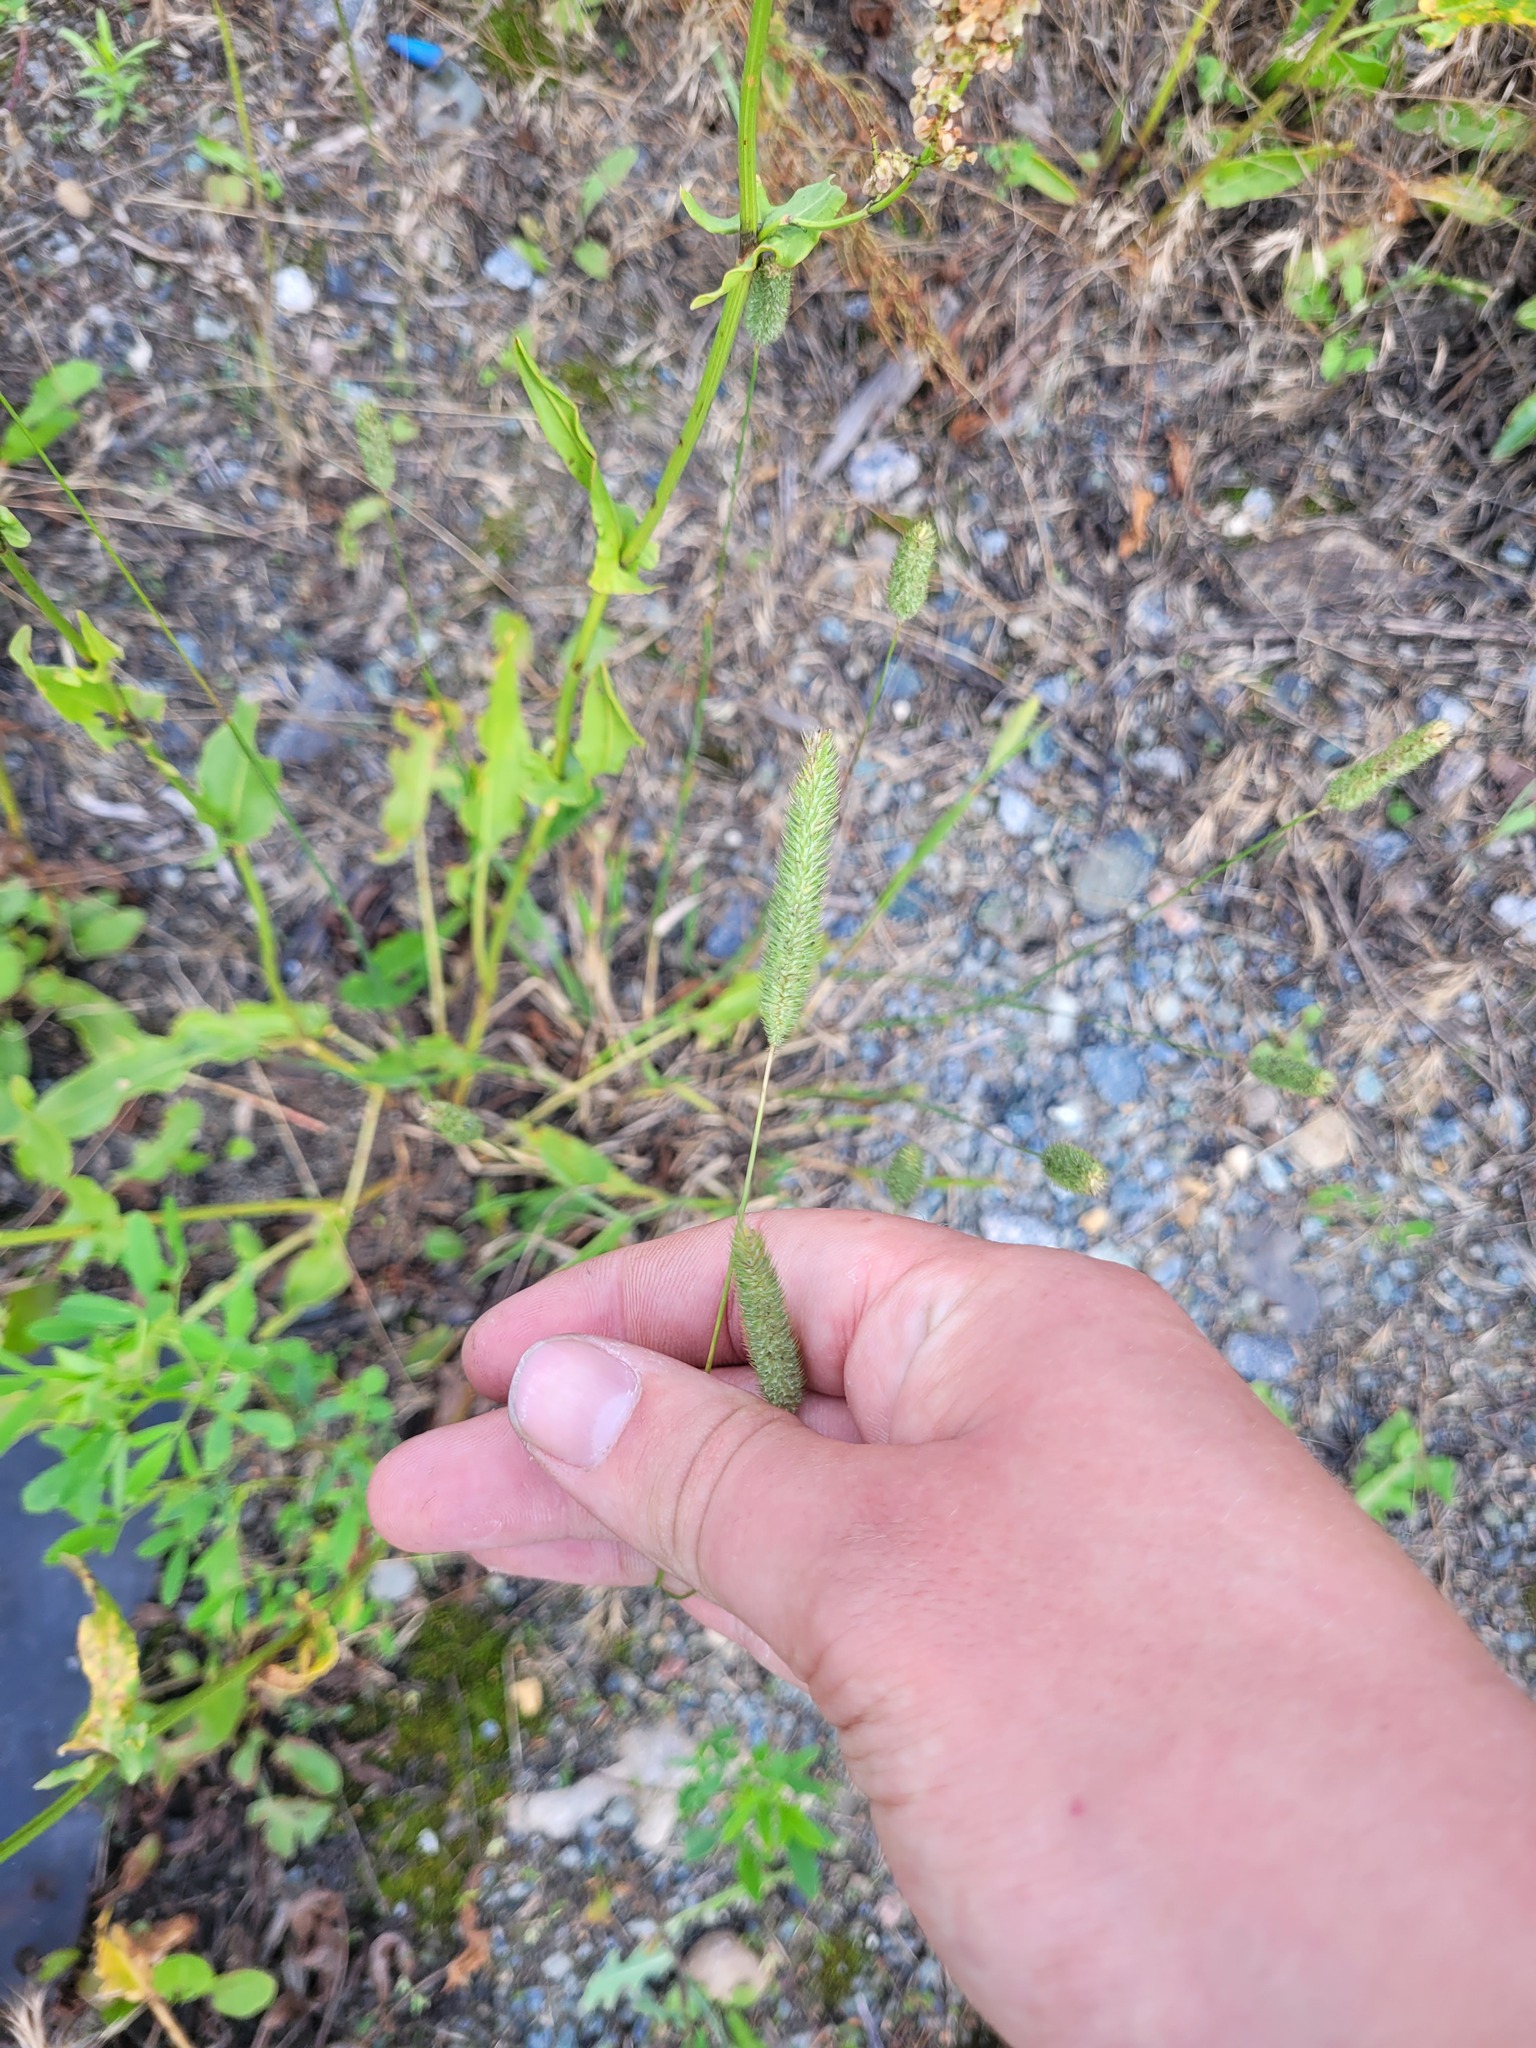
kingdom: Plantae
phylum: Tracheophyta
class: Liliopsida
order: Poales
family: Poaceae
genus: Phleum
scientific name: Phleum pratense
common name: Timothy grass
